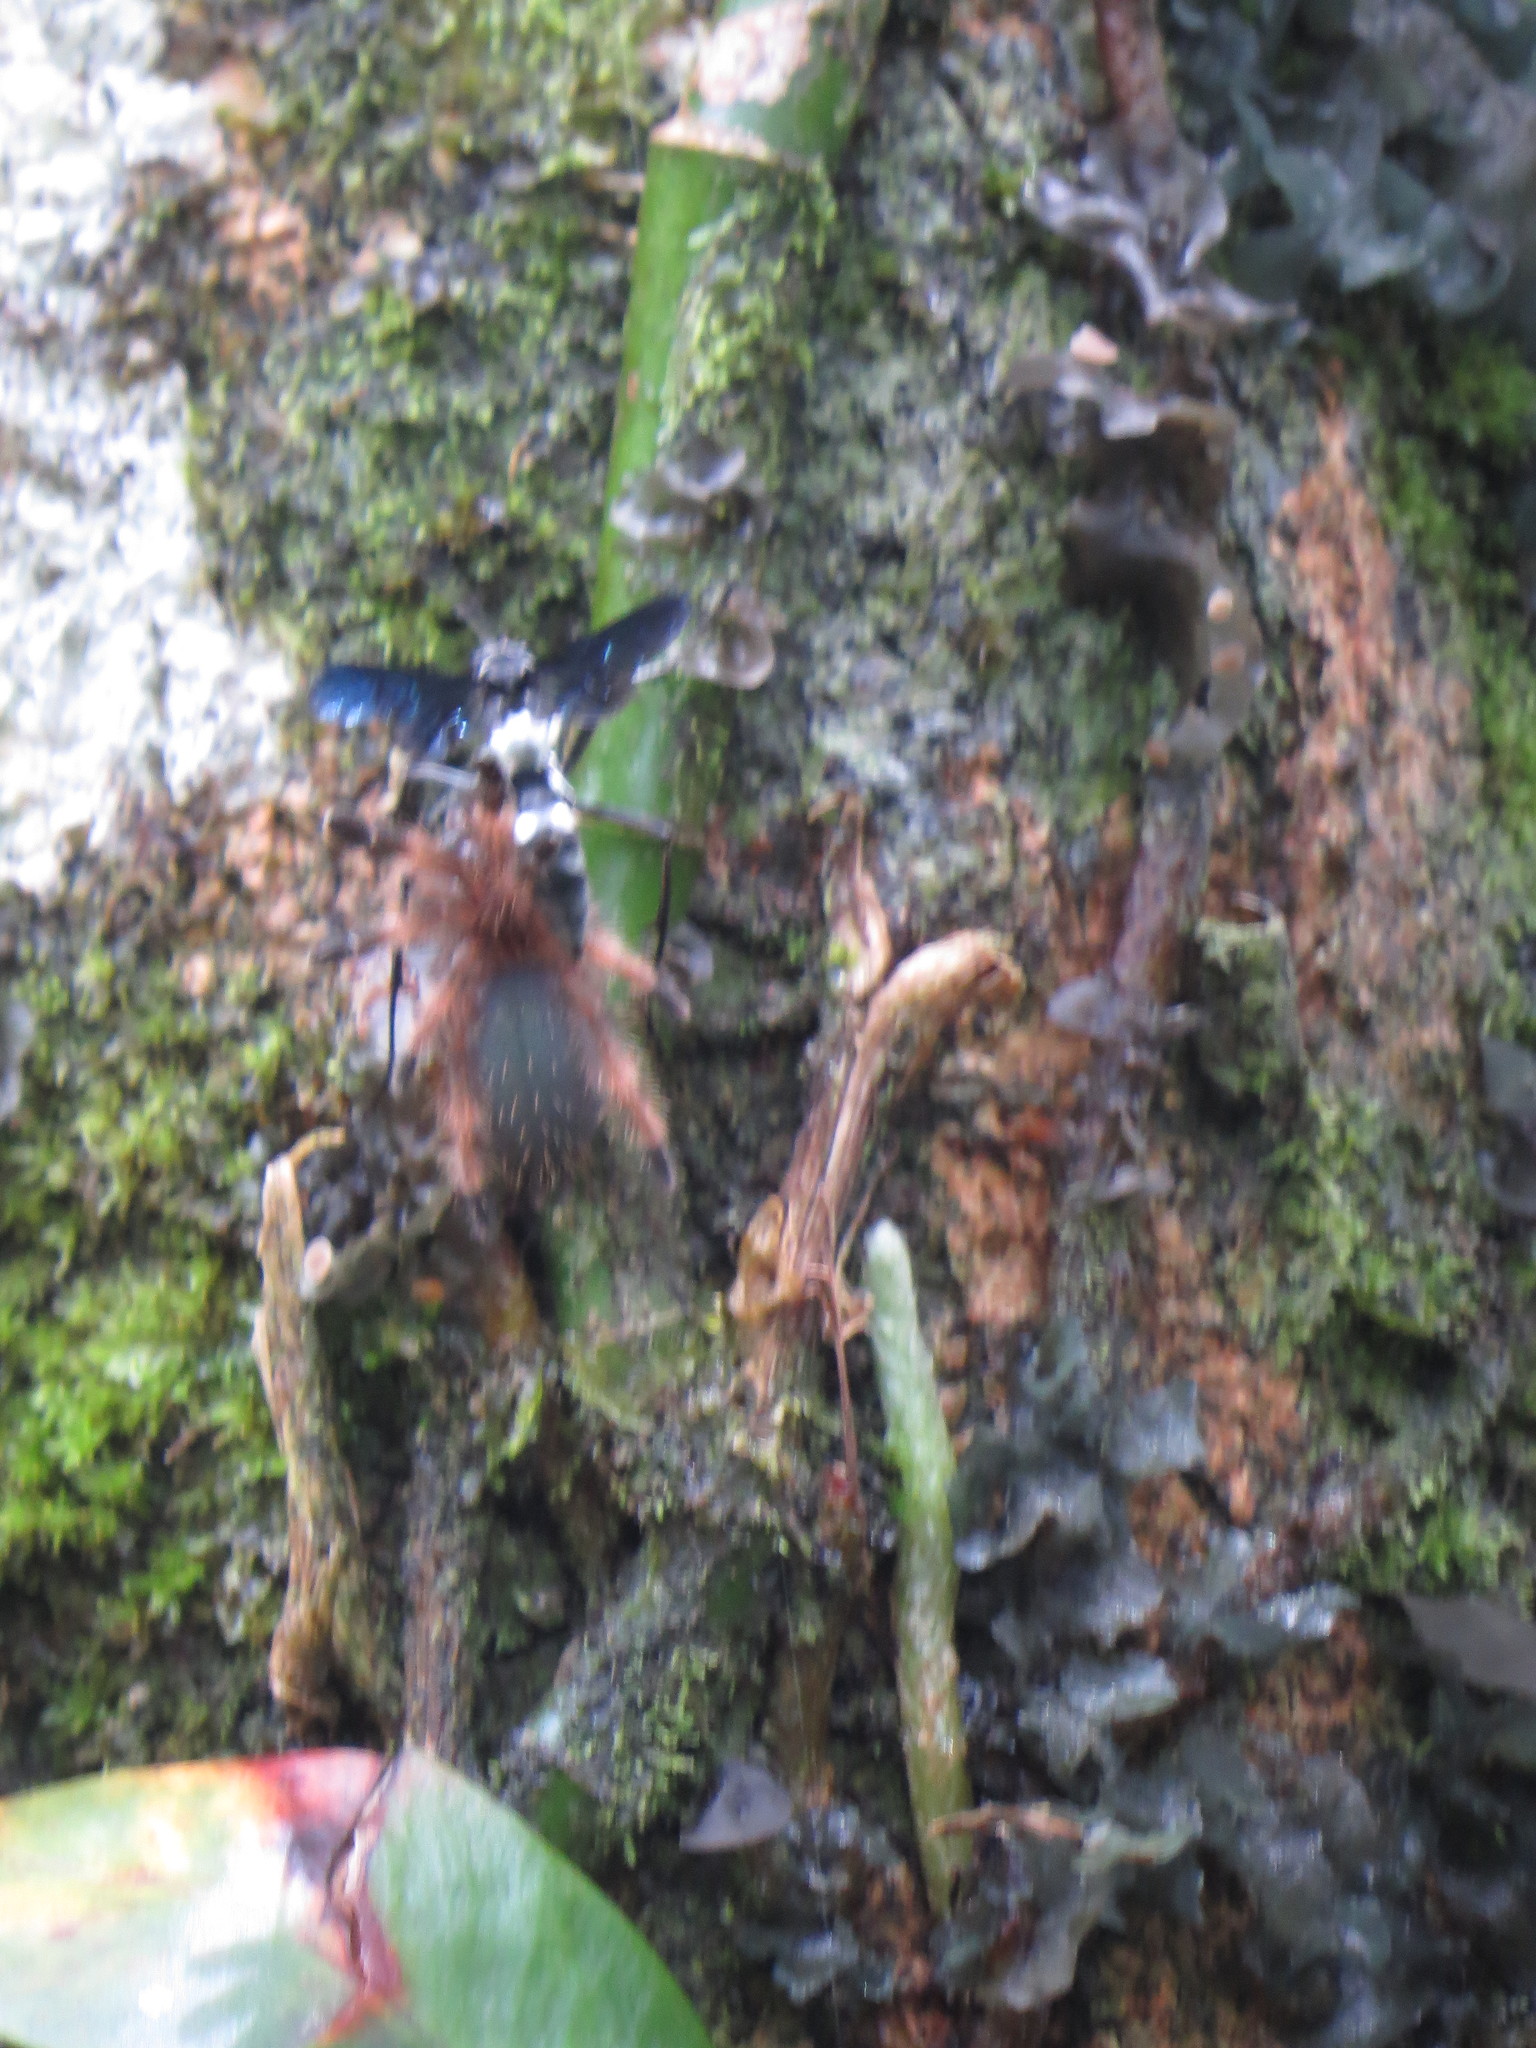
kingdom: Animalia
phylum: Arthropoda
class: Insecta
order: Hymenoptera
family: Pompilidae
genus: Priochilus
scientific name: Priochilus gloriosum
